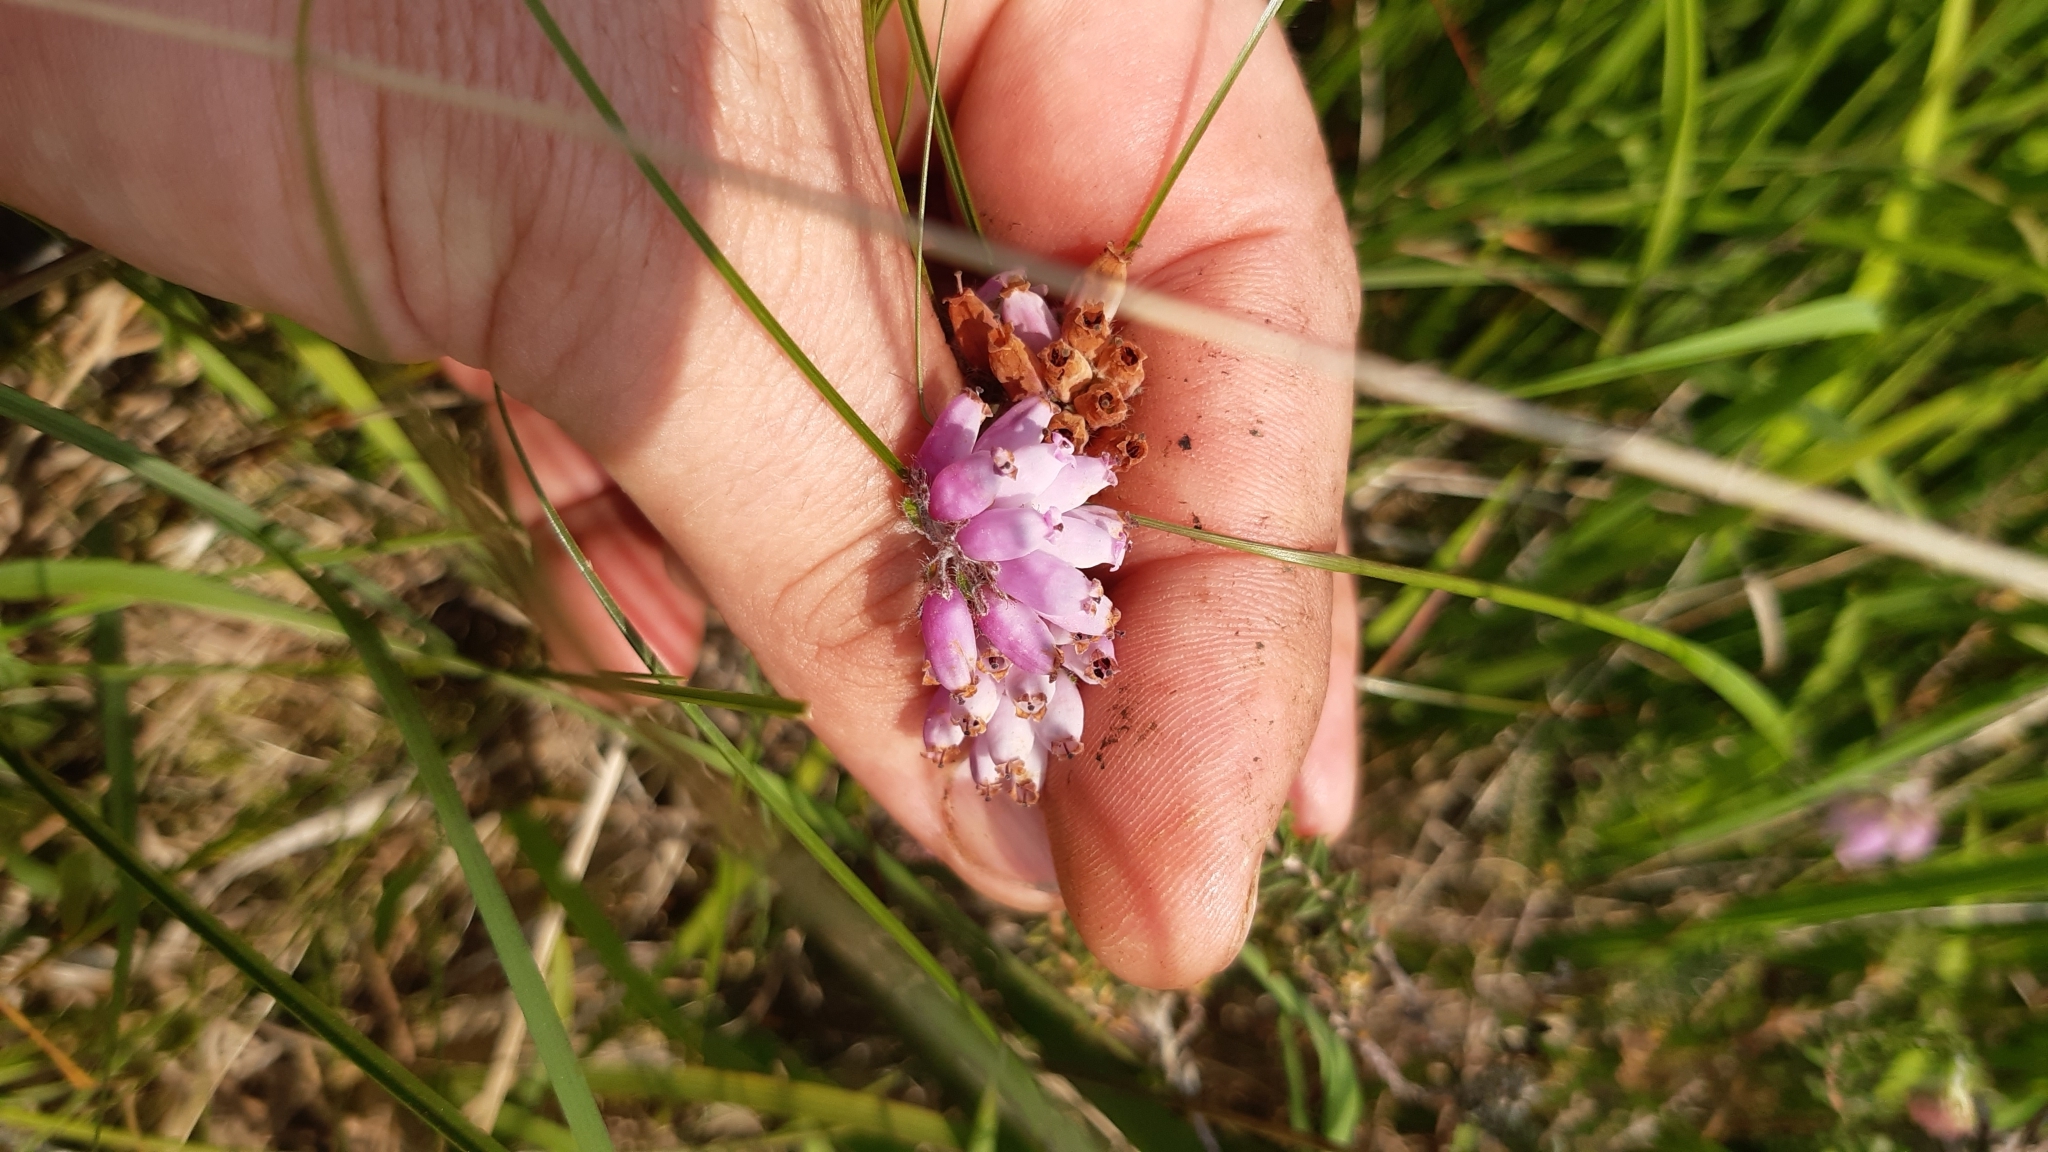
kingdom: Plantae
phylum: Tracheophyta
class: Magnoliopsida
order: Ericales
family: Ericaceae
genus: Erica
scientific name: Erica tetralix
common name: Cross-leaved heath
